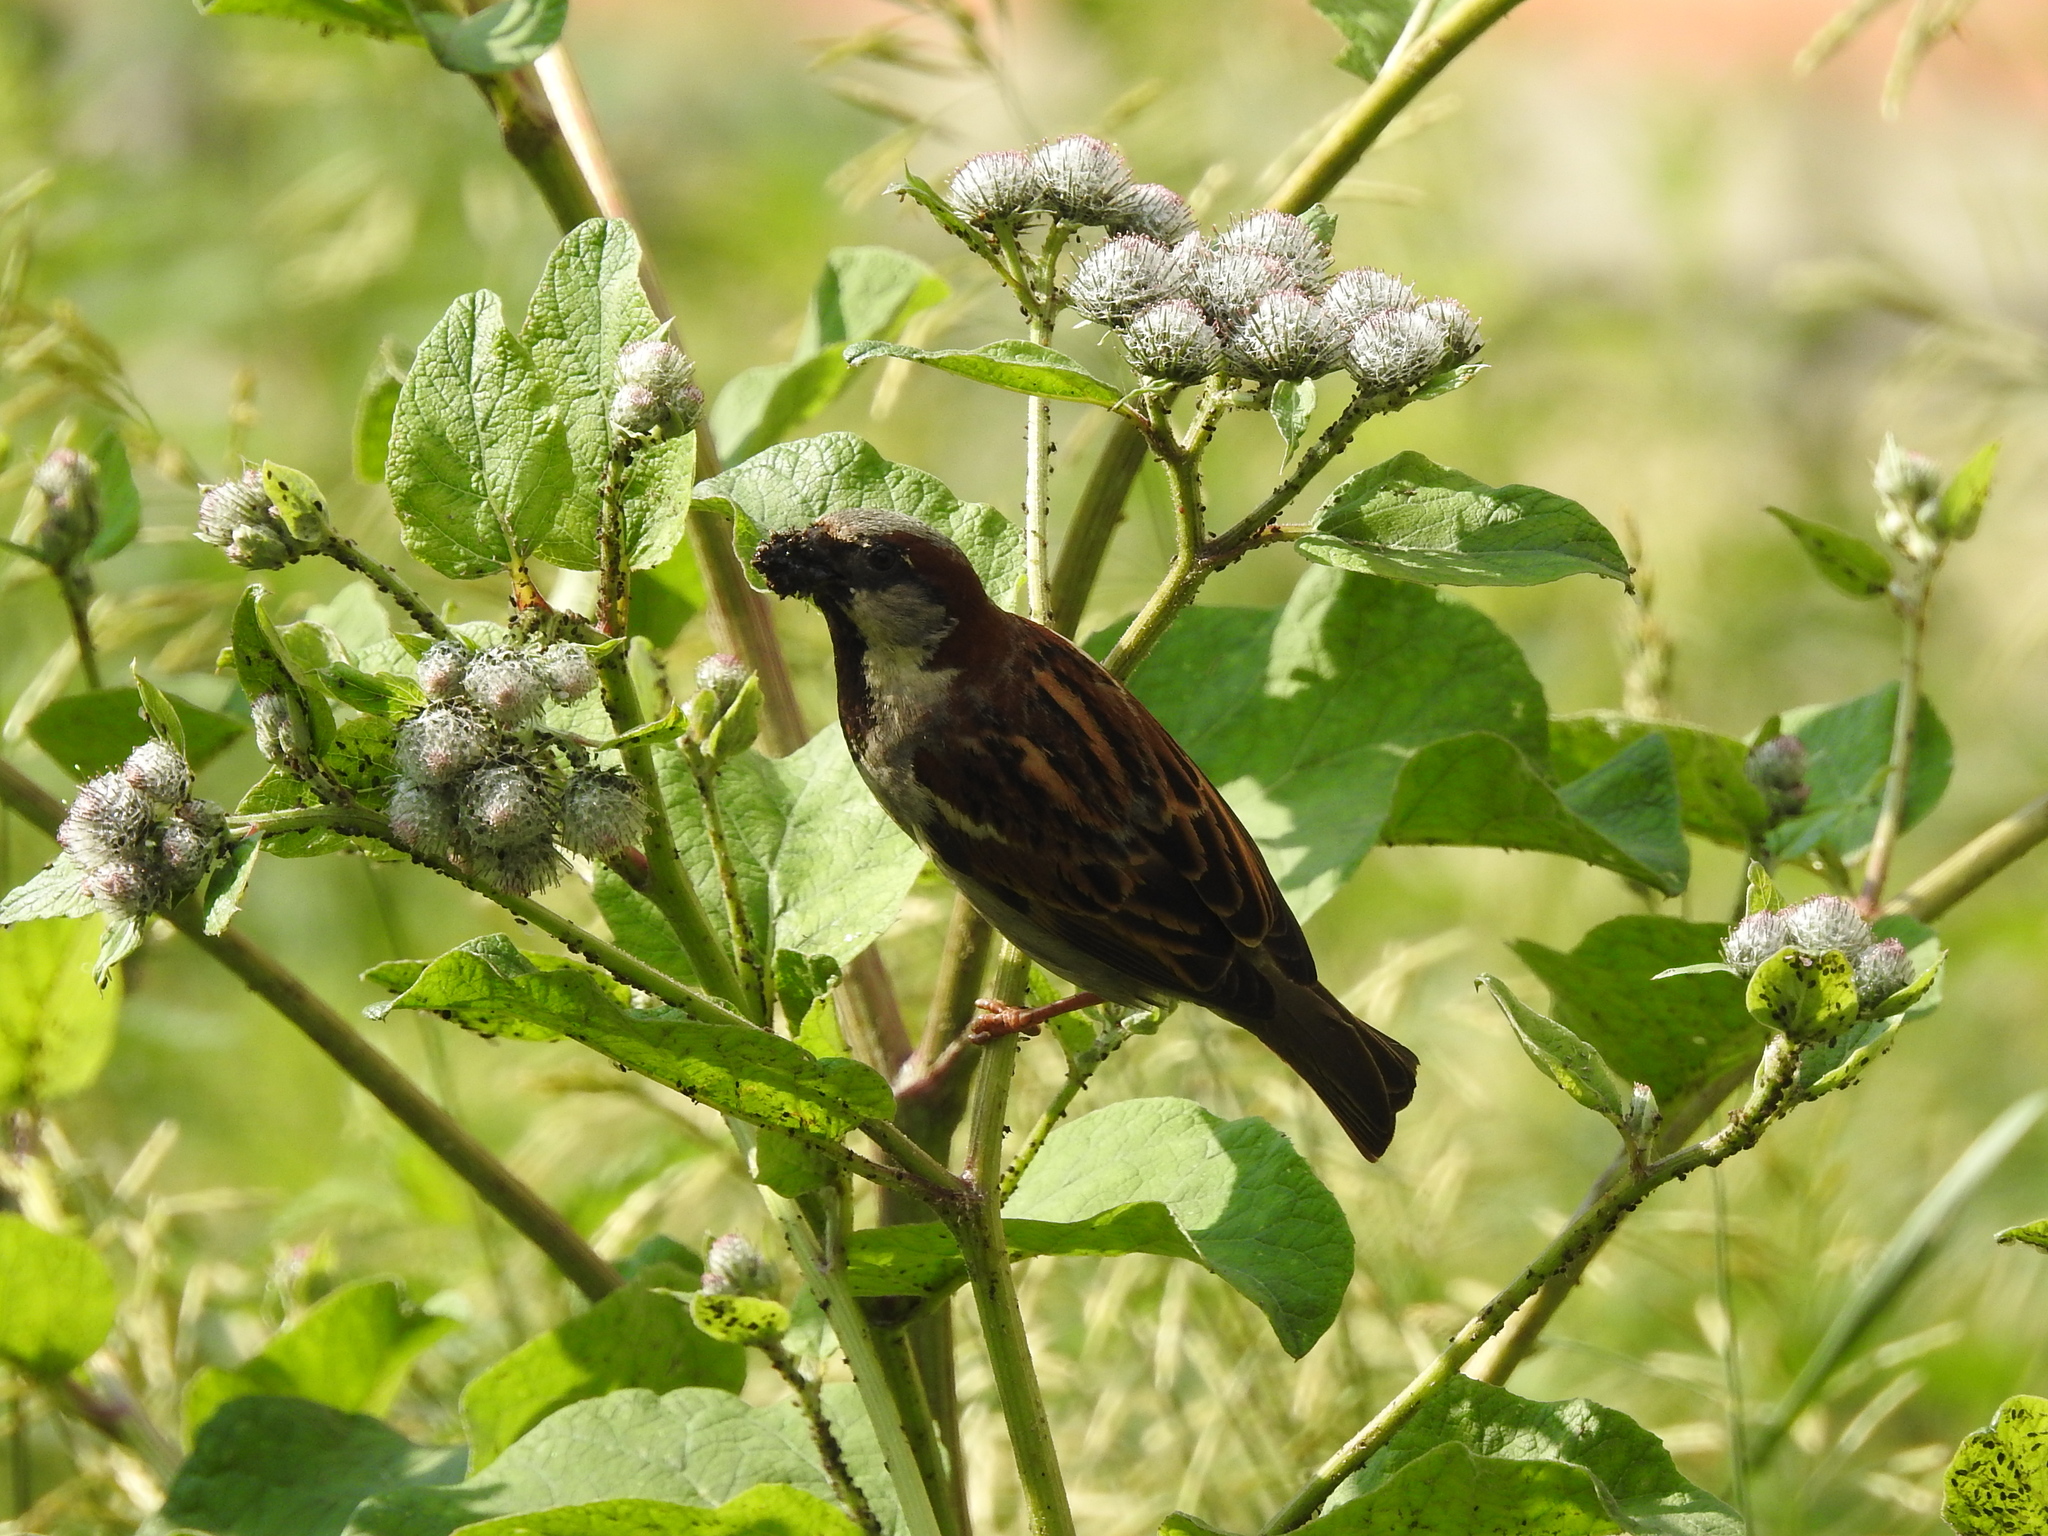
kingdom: Animalia
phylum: Chordata
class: Aves
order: Passeriformes
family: Passeridae
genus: Passer
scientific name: Passer domesticus
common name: House sparrow
